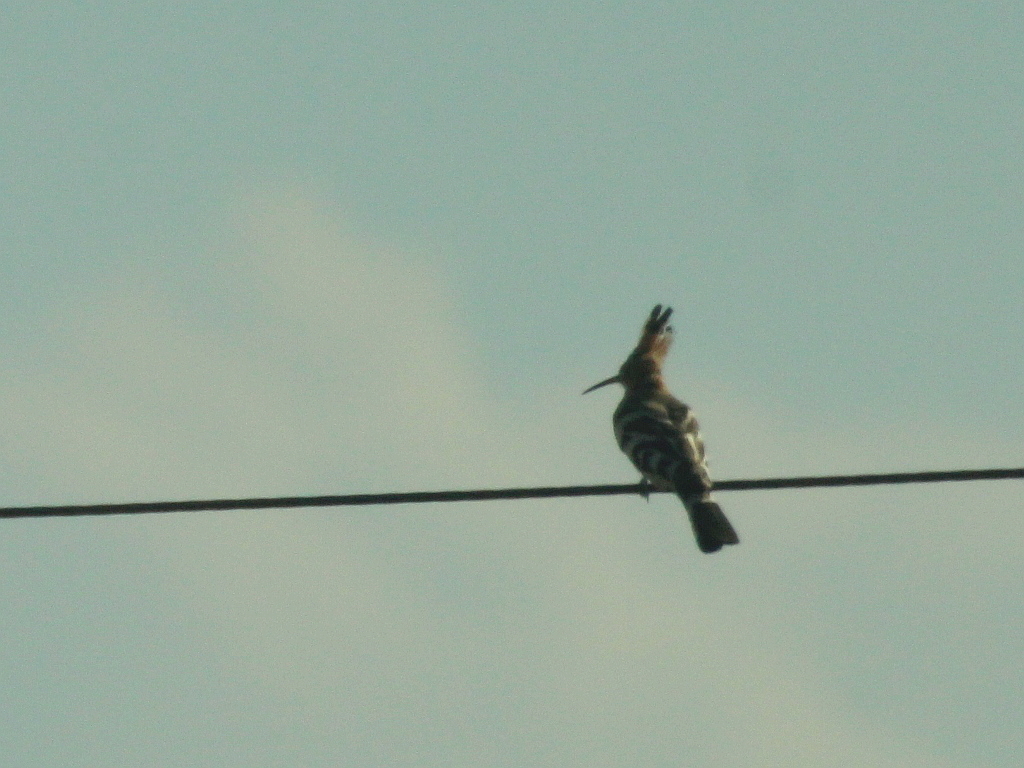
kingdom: Animalia
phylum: Chordata
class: Aves
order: Bucerotiformes
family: Upupidae
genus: Upupa
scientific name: Upupa epops
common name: Eurasian hoopoe
